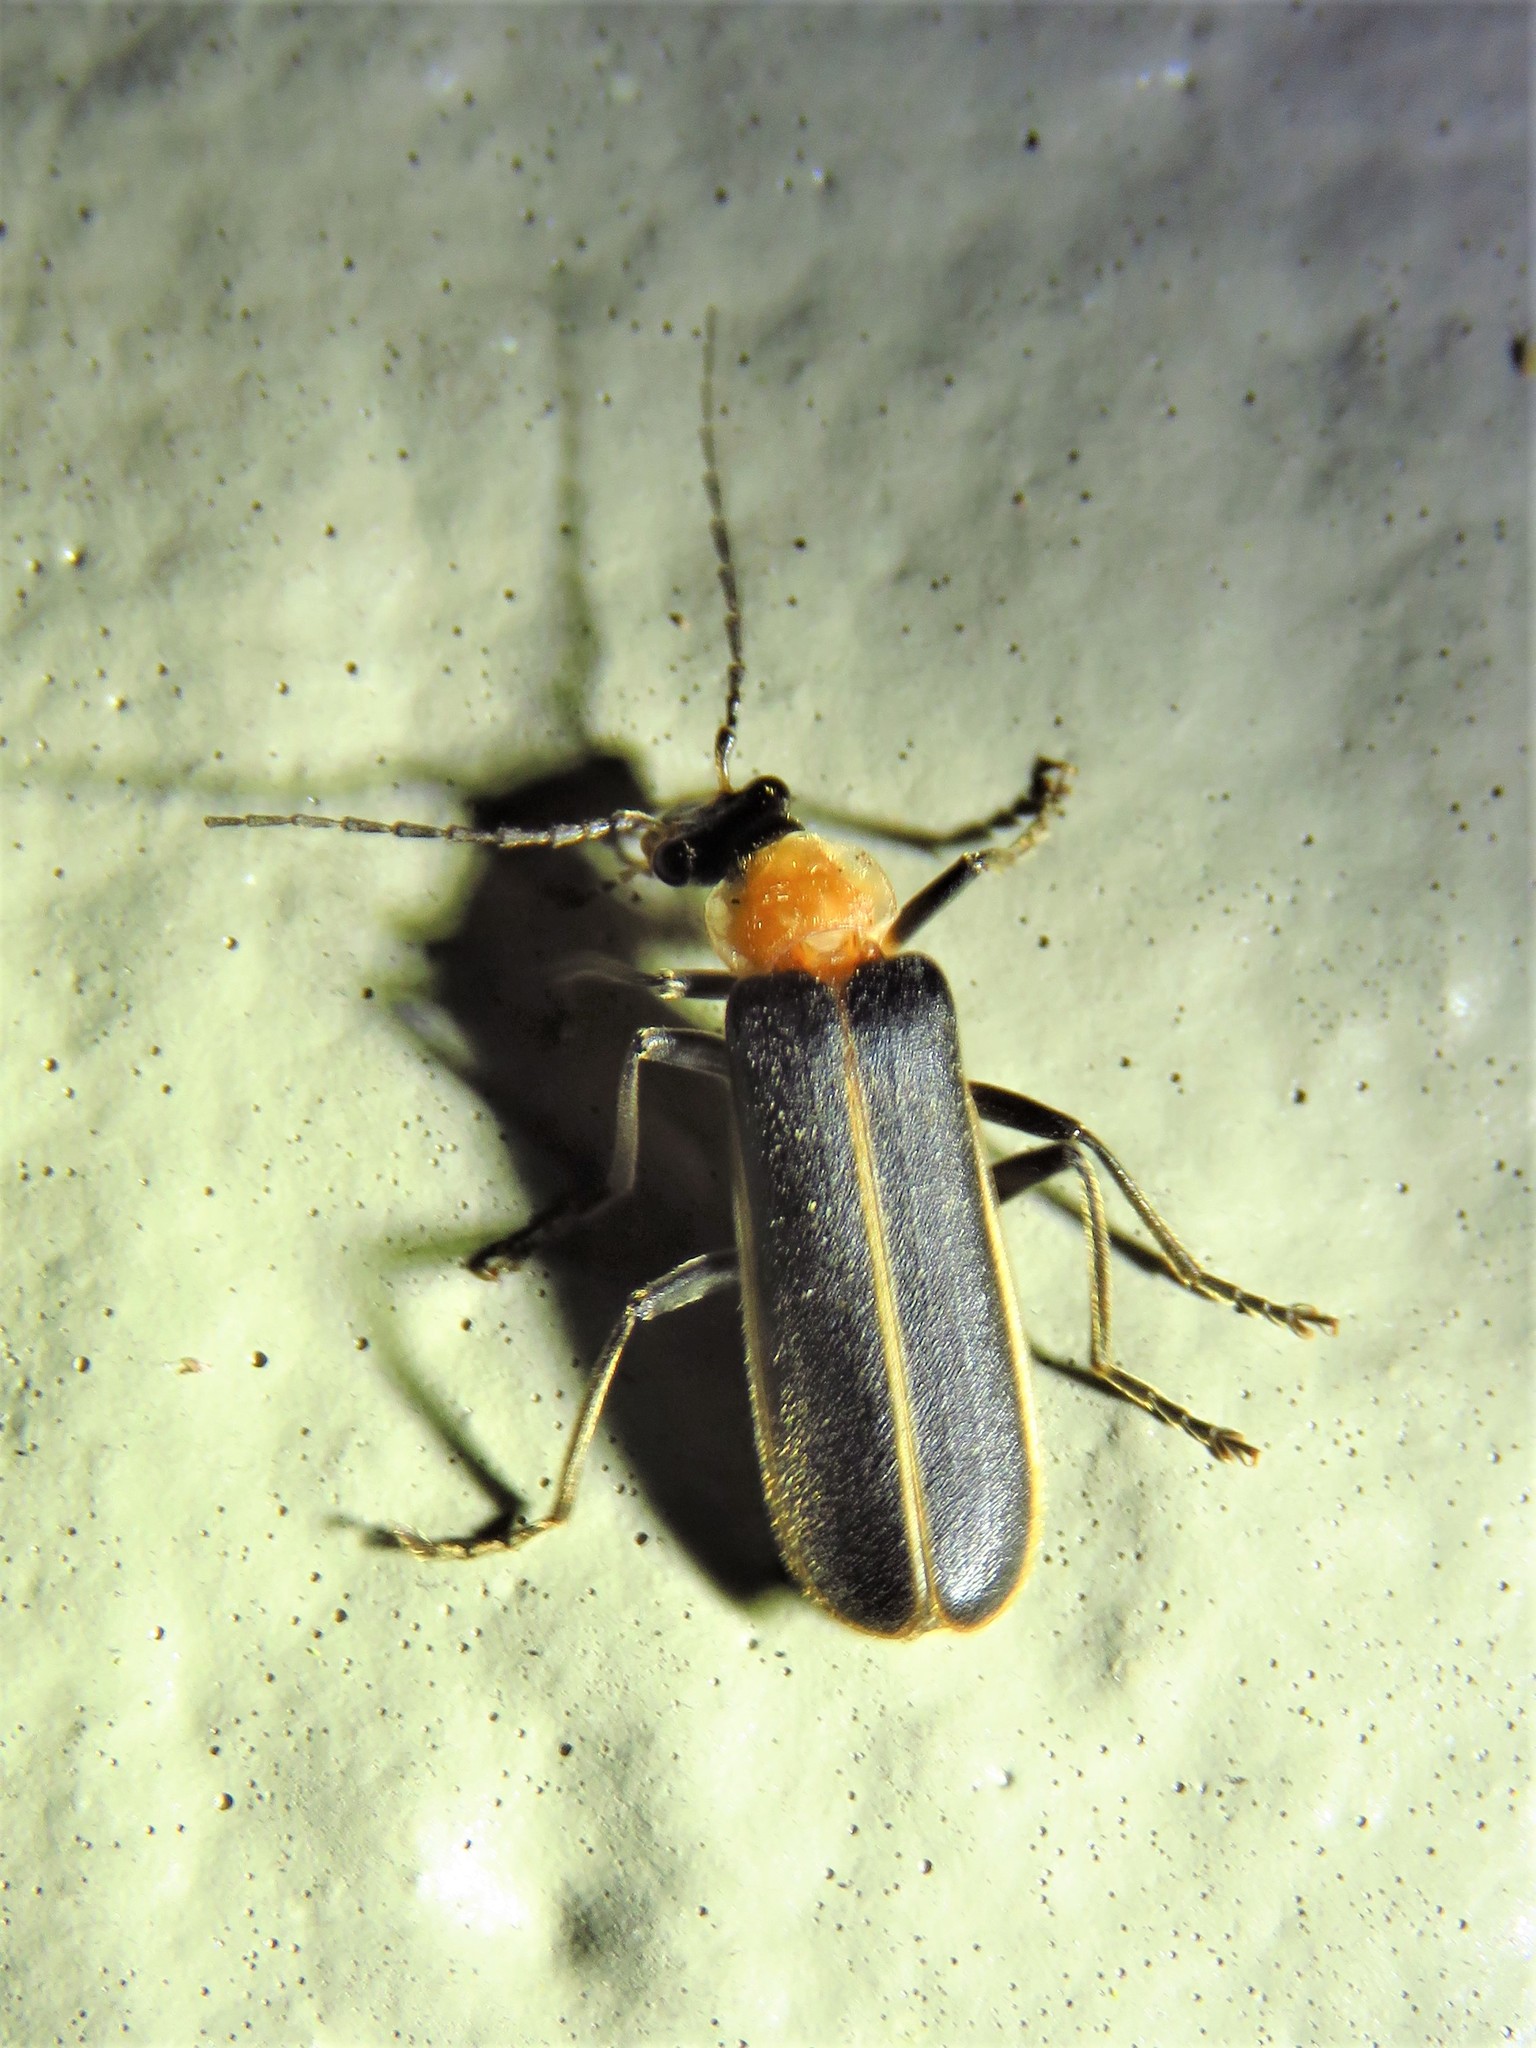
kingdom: Animalia
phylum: Arthropoda
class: Insecta
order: Coleoptera
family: Cantharidae
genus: Podabrus
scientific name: Podabrus flavicollis
